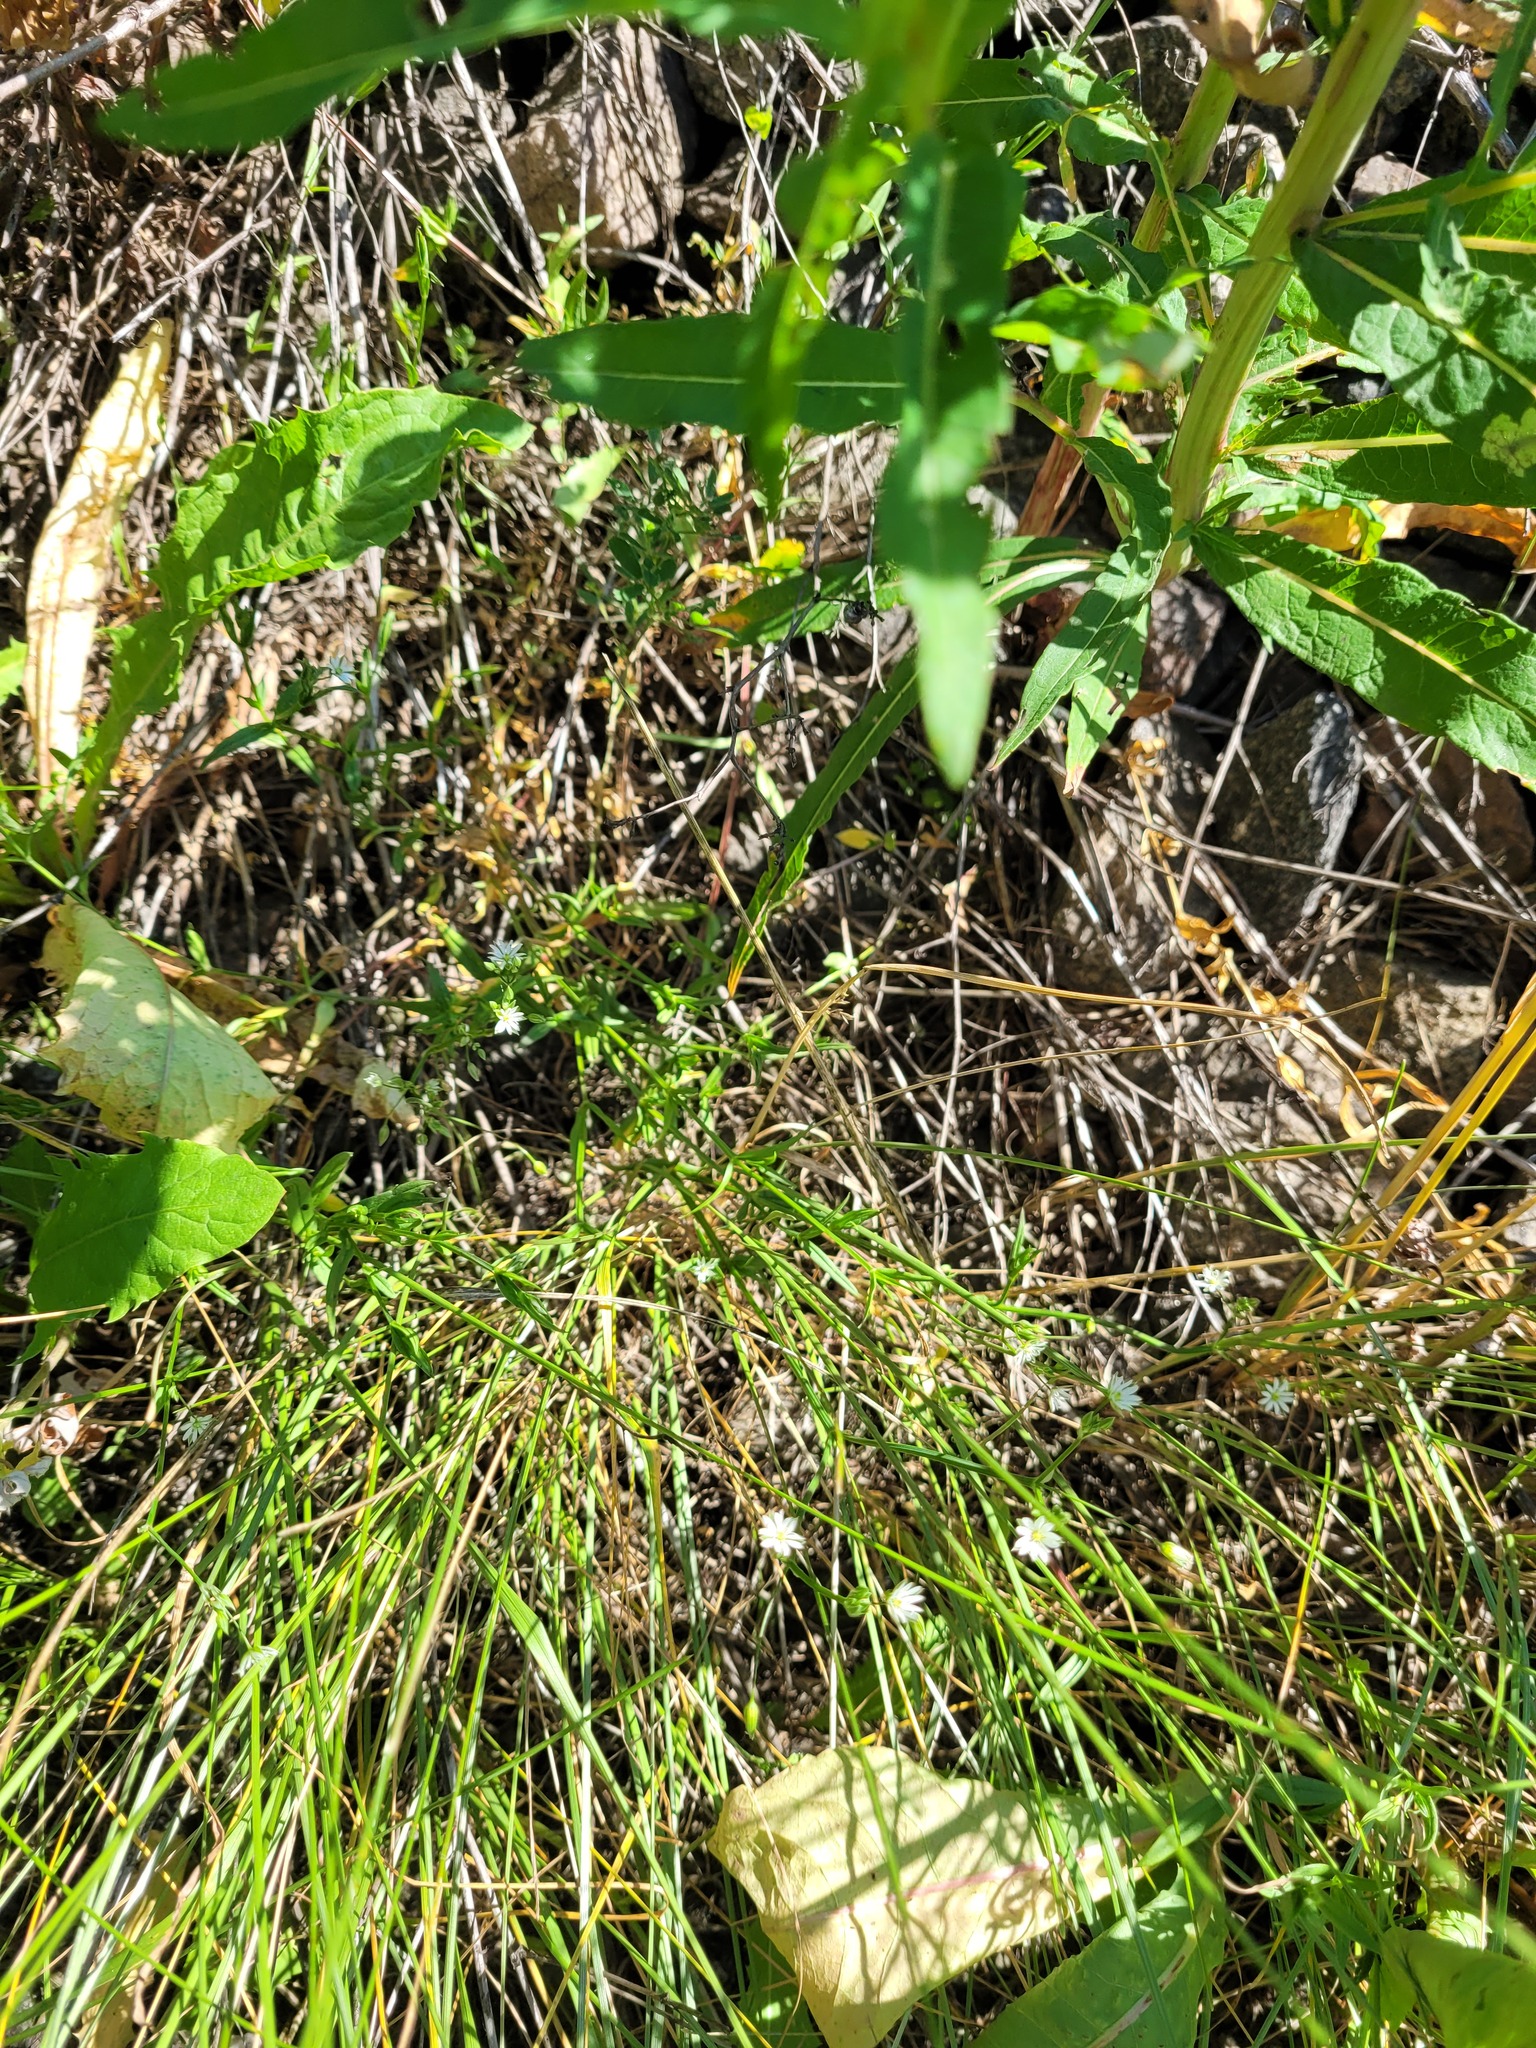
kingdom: Plantae
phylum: Tracheophyta
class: Liliopsida
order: Poales
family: Poaceae
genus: Poa
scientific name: Poa angustifolia
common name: Narrow-leaved meadow-grass
